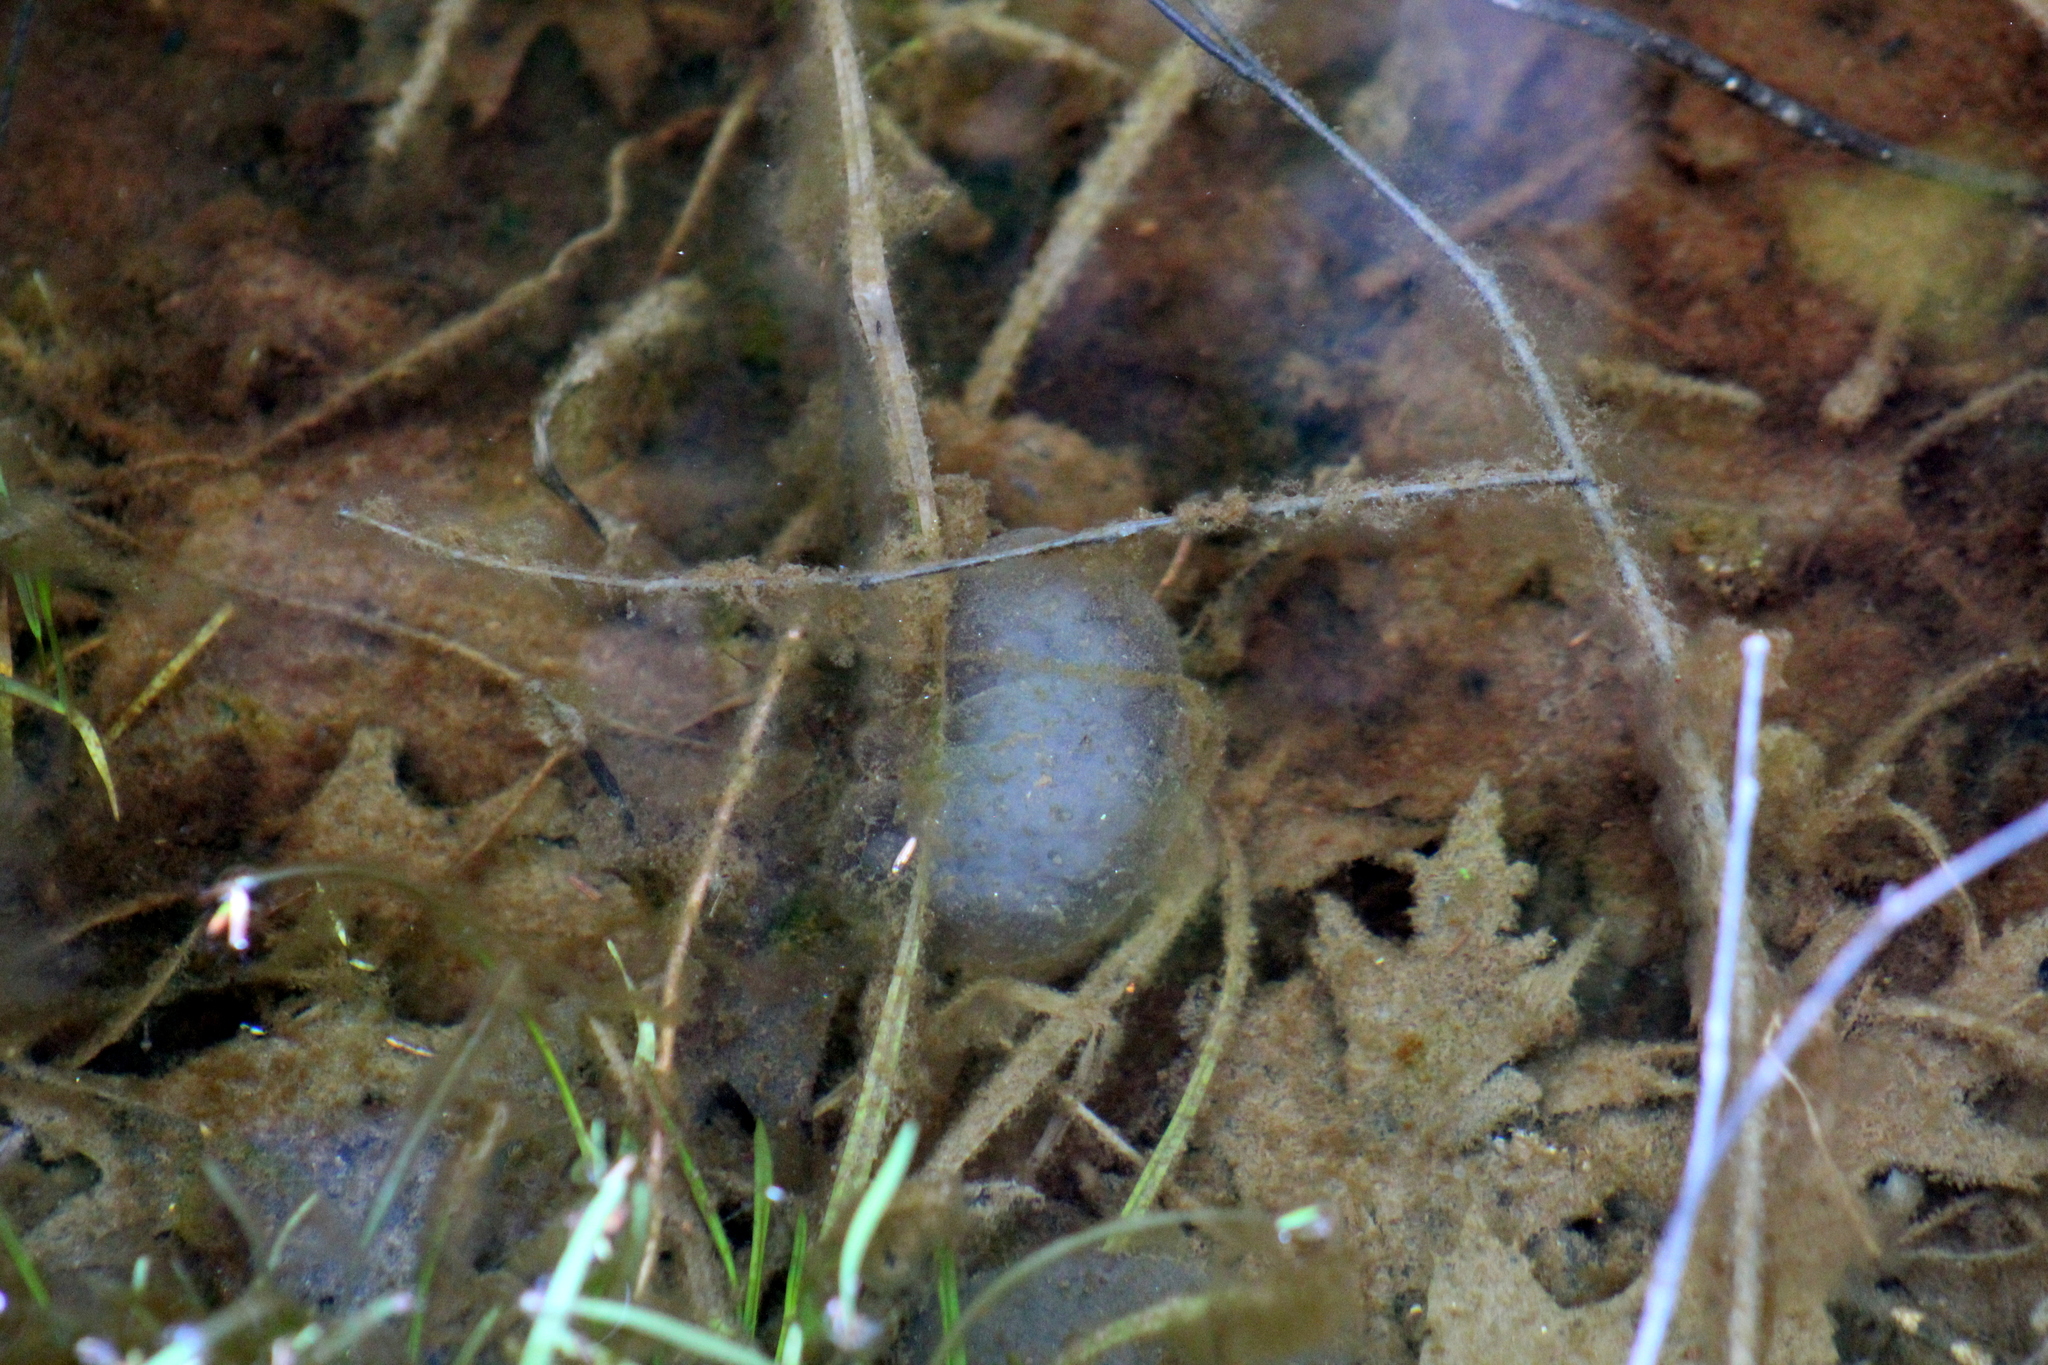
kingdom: Animalia
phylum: Chordata
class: Amphibia
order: Caudata
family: Ambystomatidae
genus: Ambystoma
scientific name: Ambystoma maculatum
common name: Spotted salamander
